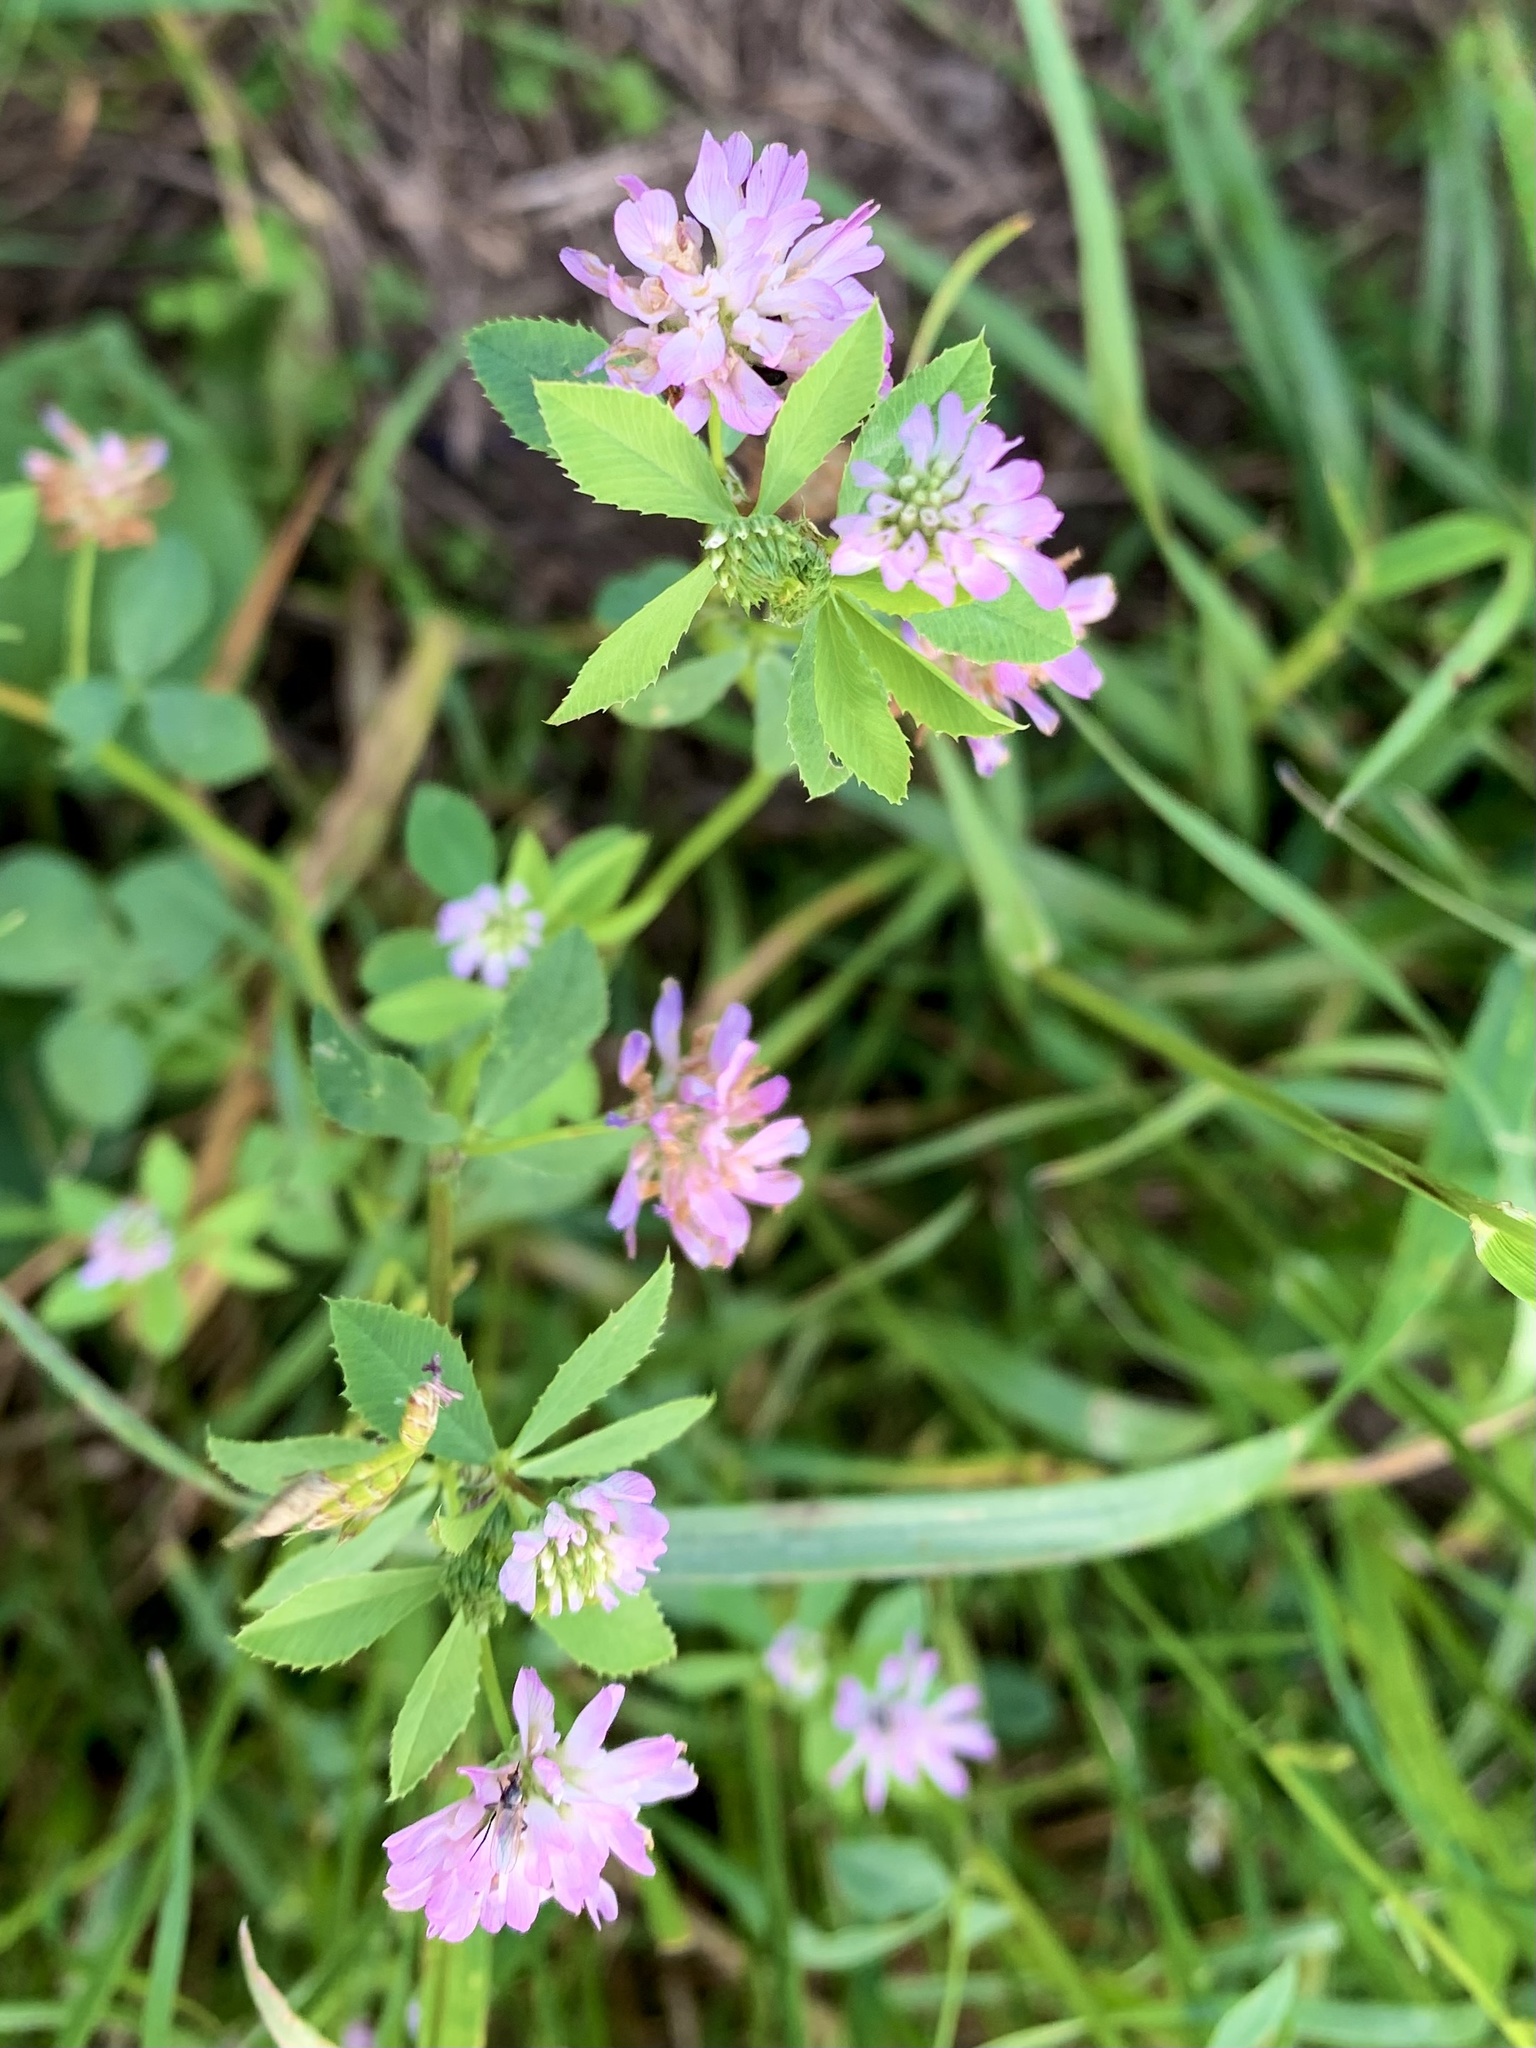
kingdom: Plantae
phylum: Tracheophyta
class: Magnoliopsida
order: Fabales
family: Fabaceae
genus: Trifolium
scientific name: Trifolium resupinatum
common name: Reversed clover
